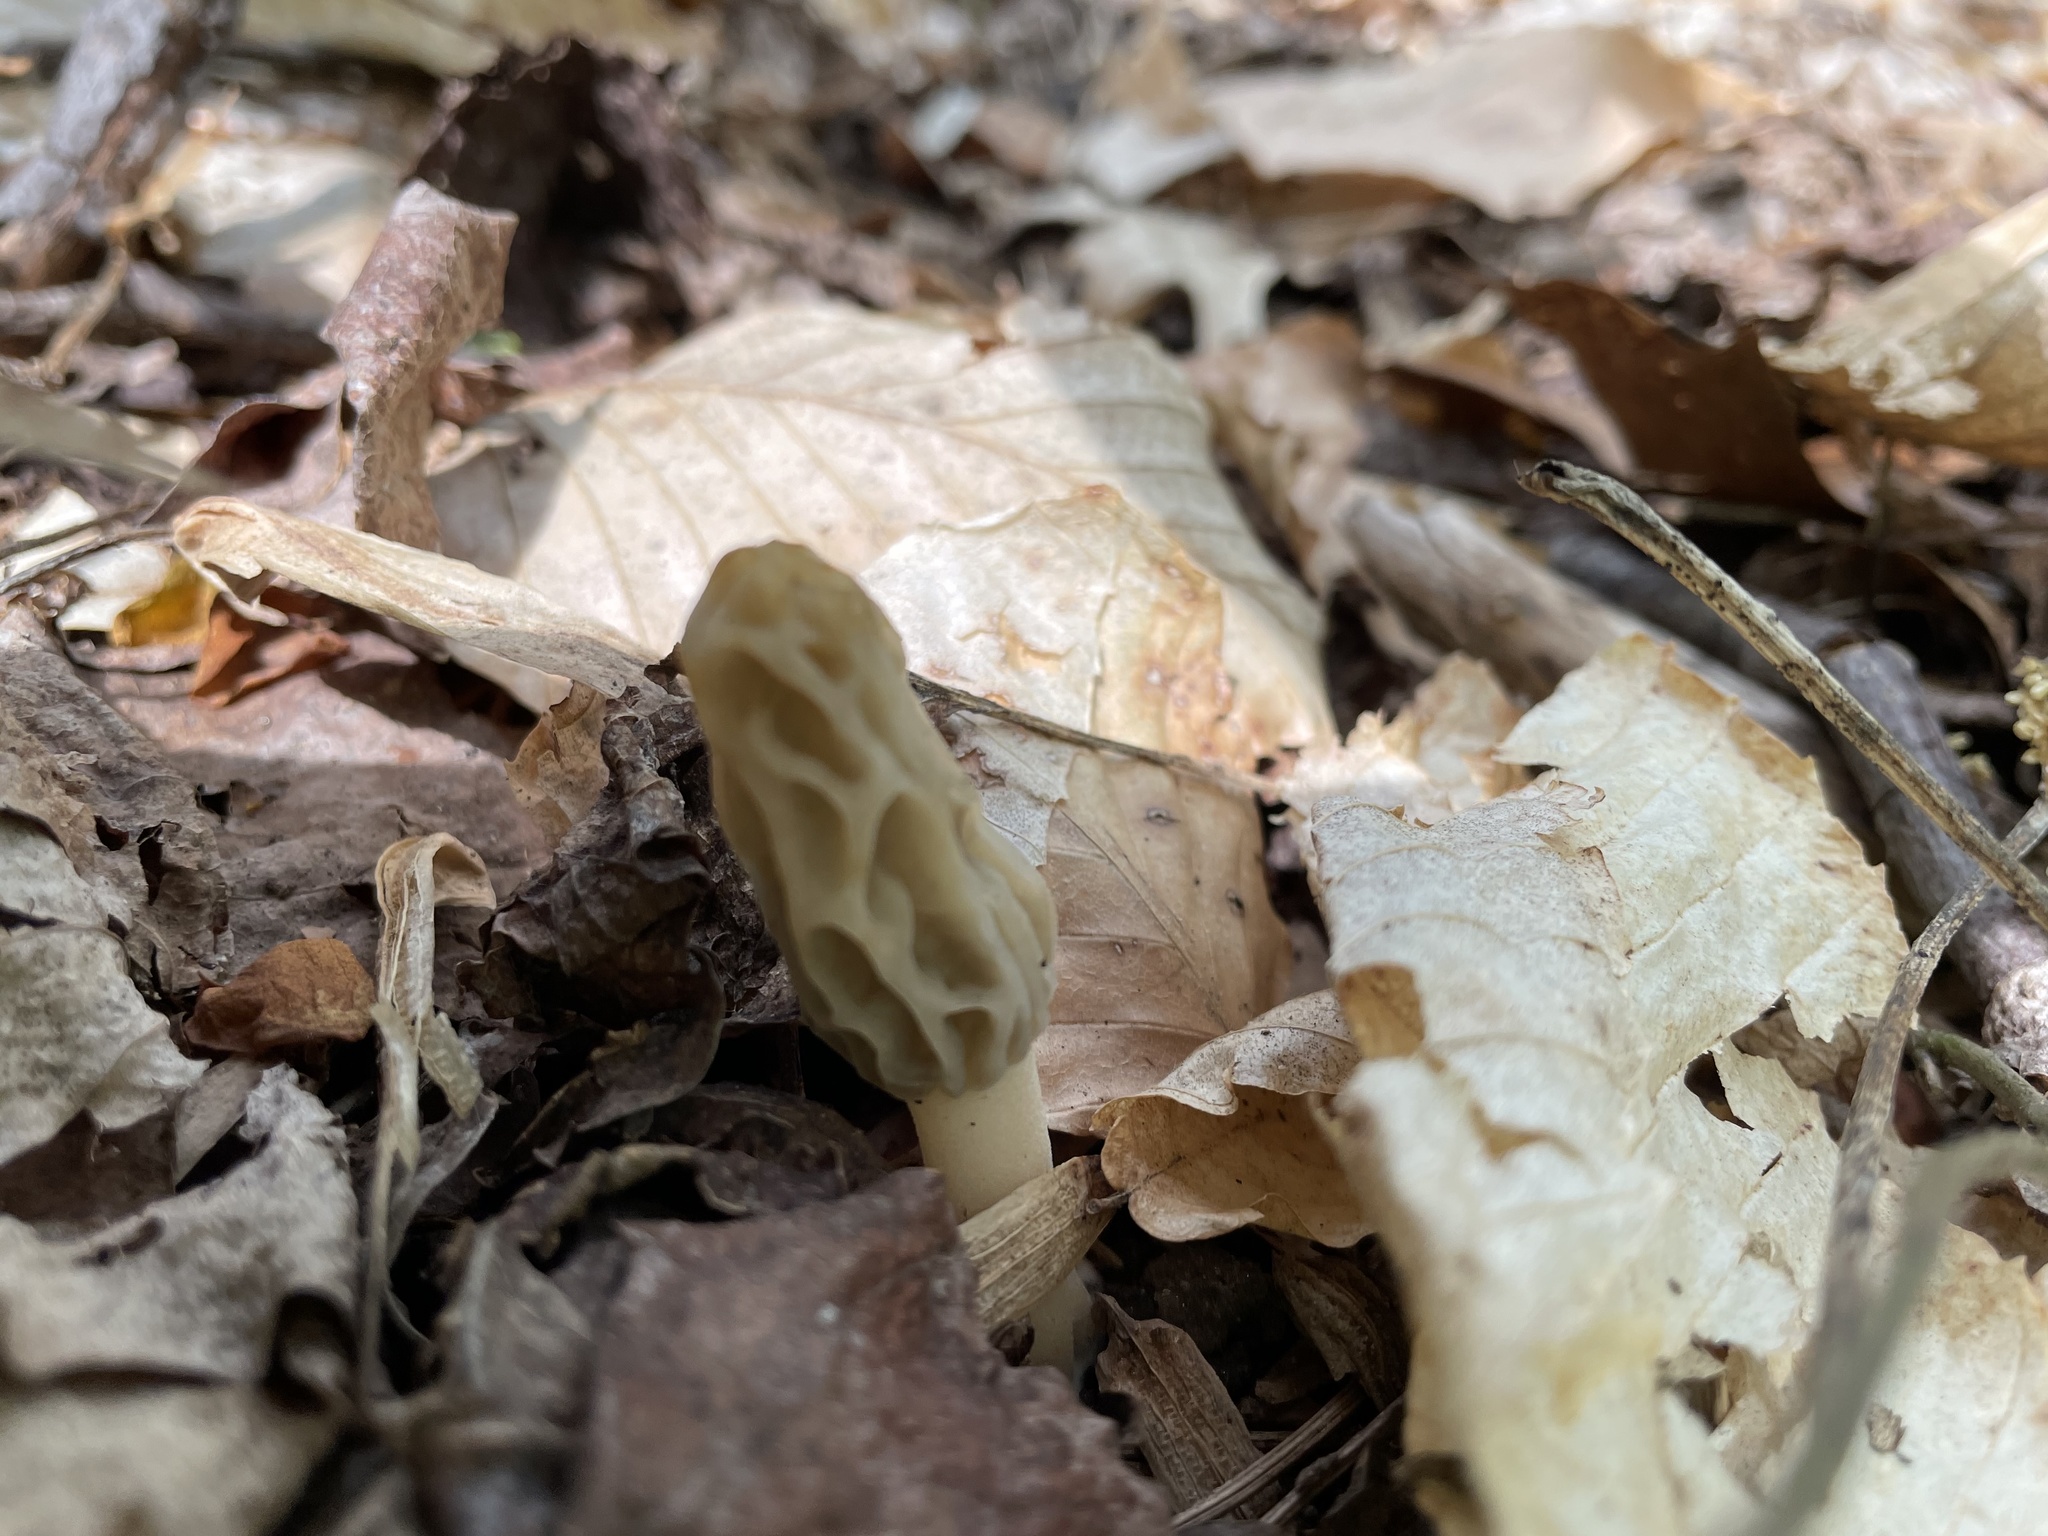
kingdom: Fungi
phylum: Ascomycota
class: Pezizomycetes
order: Pezizales
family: Morchellaceae
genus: Morchella
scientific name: Morchella diminutiva
